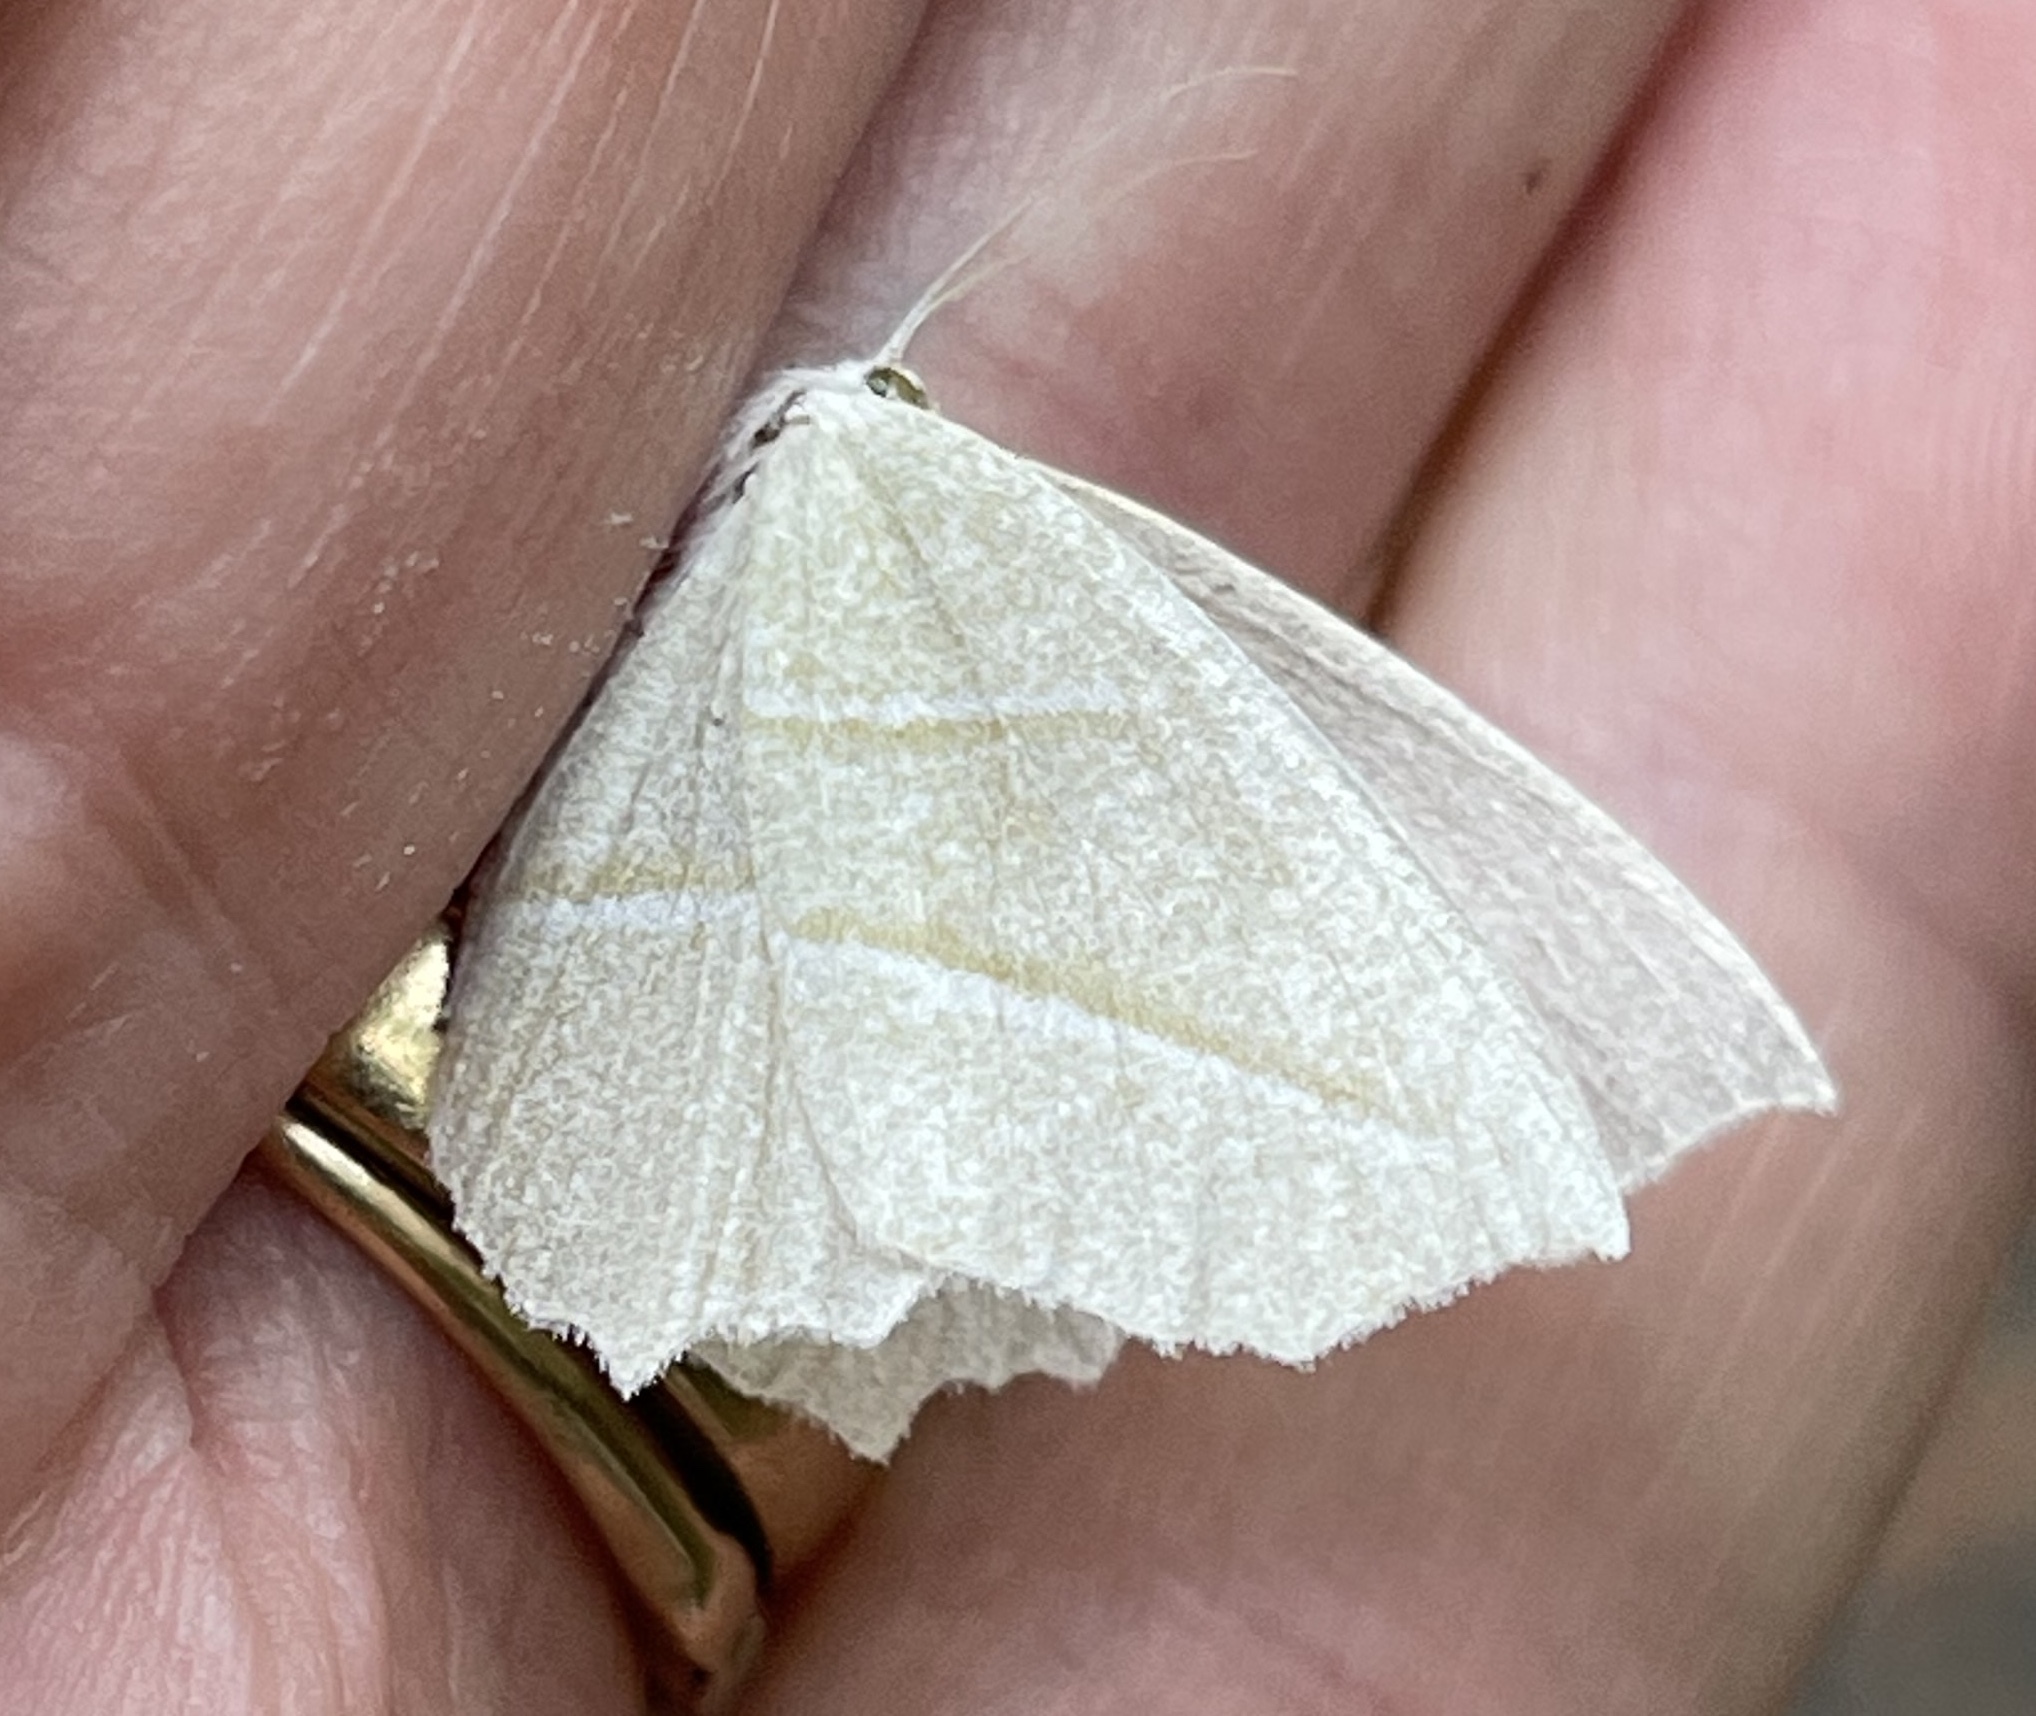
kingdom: Animalia
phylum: Arthropoda
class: Insecta
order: Lepidoptera
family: Geometridae
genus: Campaea
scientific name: Campaea perlata
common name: Fringed looper
